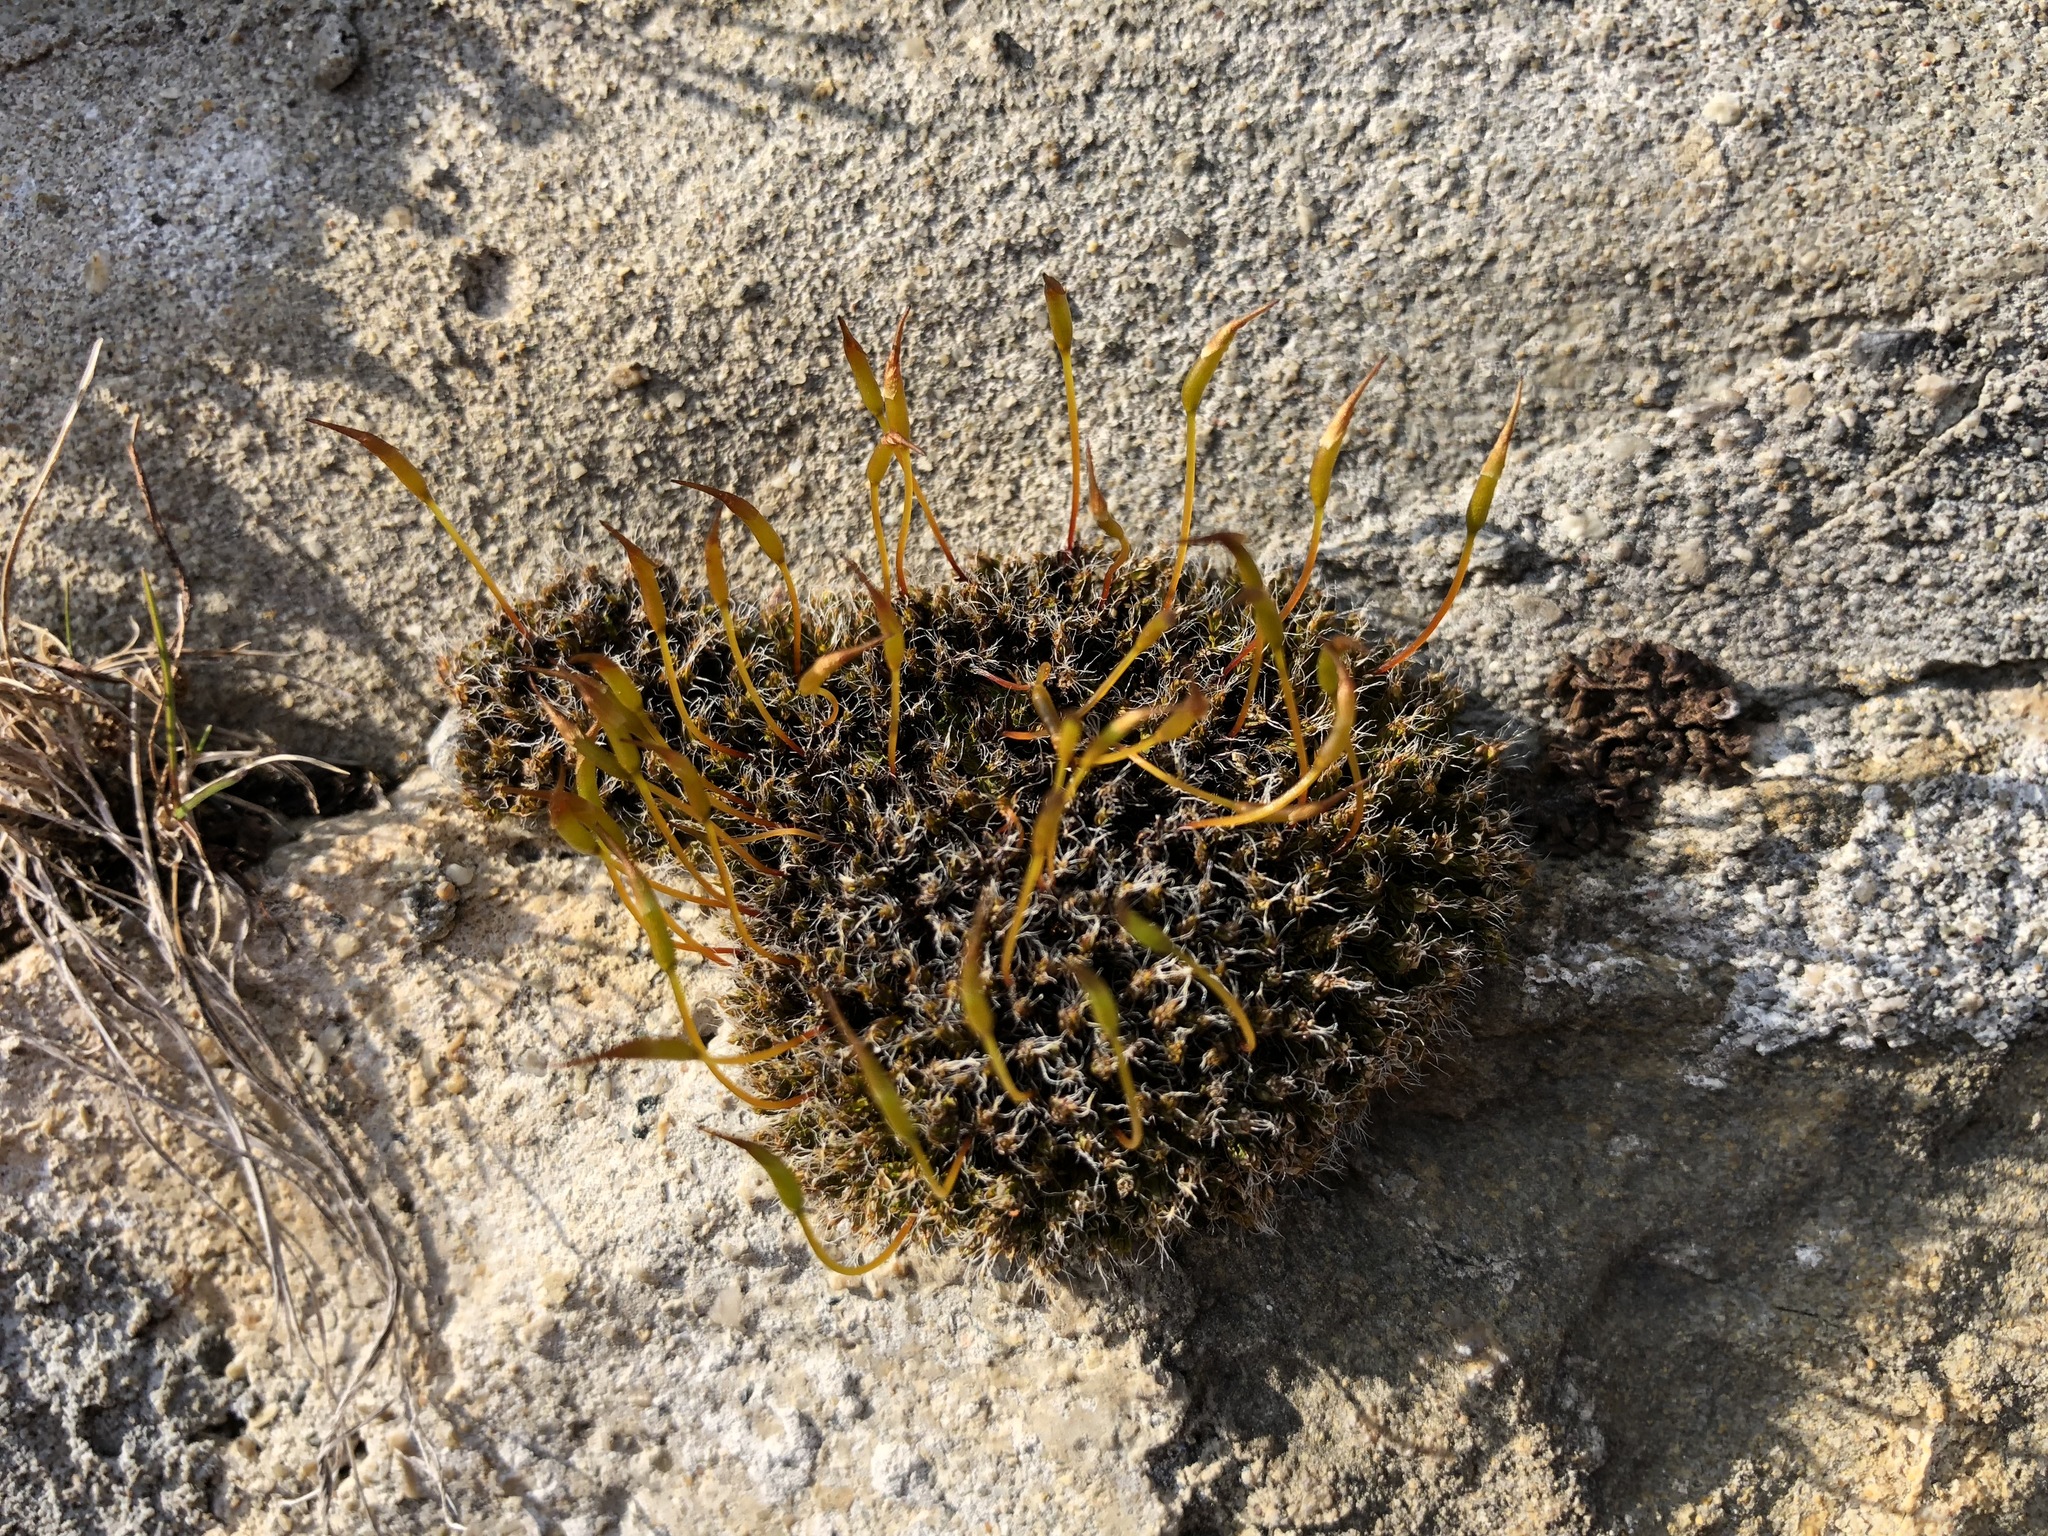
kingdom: Plantae
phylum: Bryophyta
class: Bryopsida
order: Pottiales
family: Pottiaceae
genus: Tortula
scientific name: Tortula muralis
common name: Wall screw-moss
